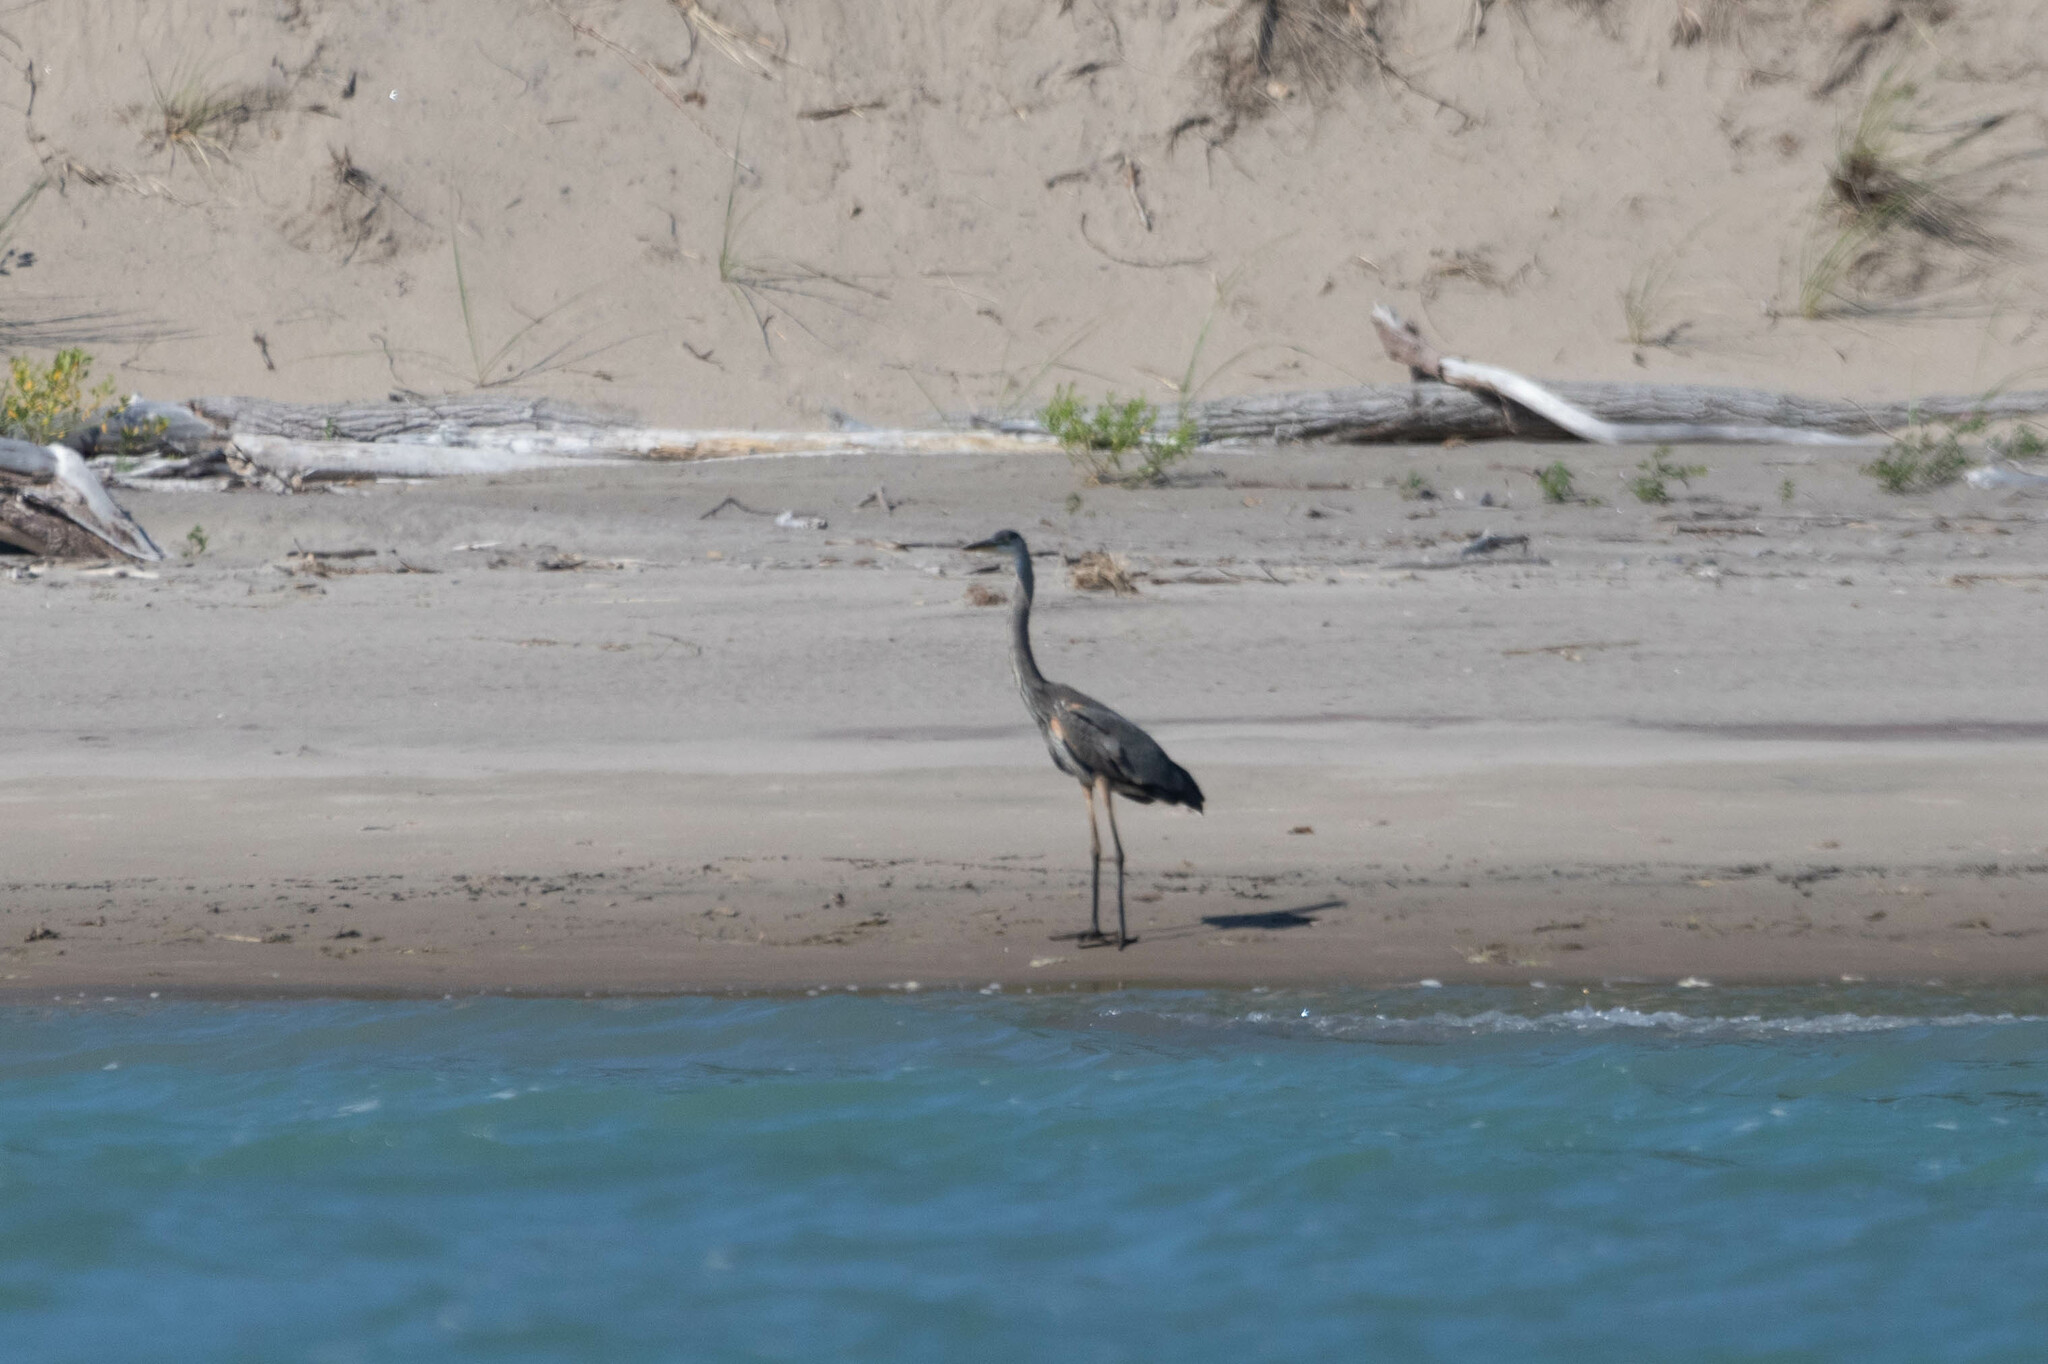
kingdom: Animalia
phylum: Chordata
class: Aves
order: Pelecaniformes
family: Ardeidae
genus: Ardea
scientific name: Ardea herodias
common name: Great blue heron
